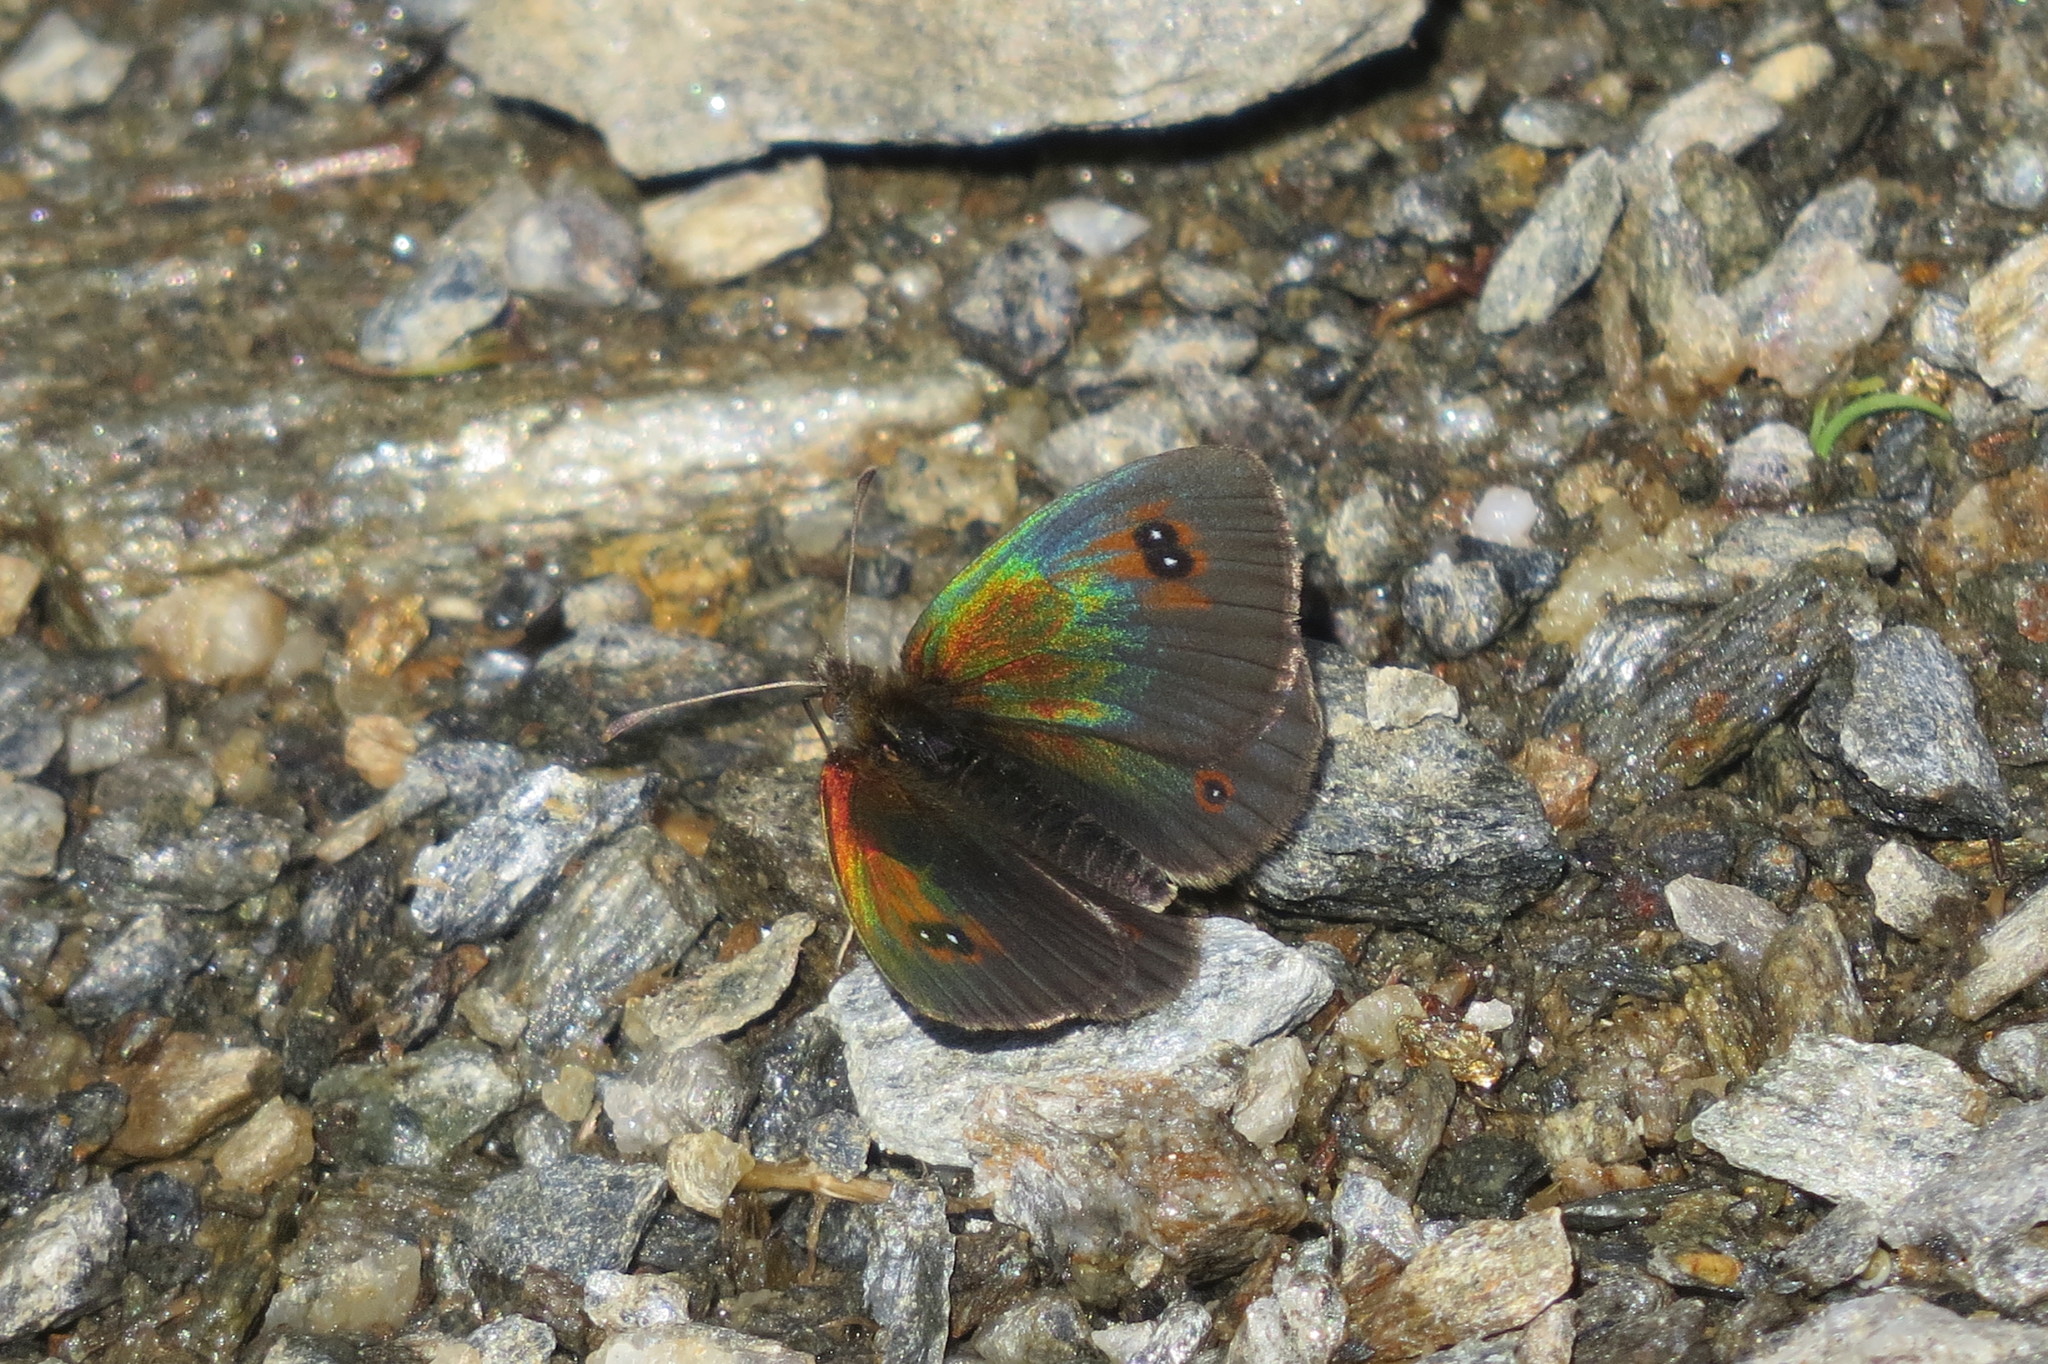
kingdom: Animalia
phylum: Arthropoda
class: Insecta
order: Lepidoptera
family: Nymphalidae
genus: Erebia
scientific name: Erebia cassioides
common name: Common brassy ringlet
